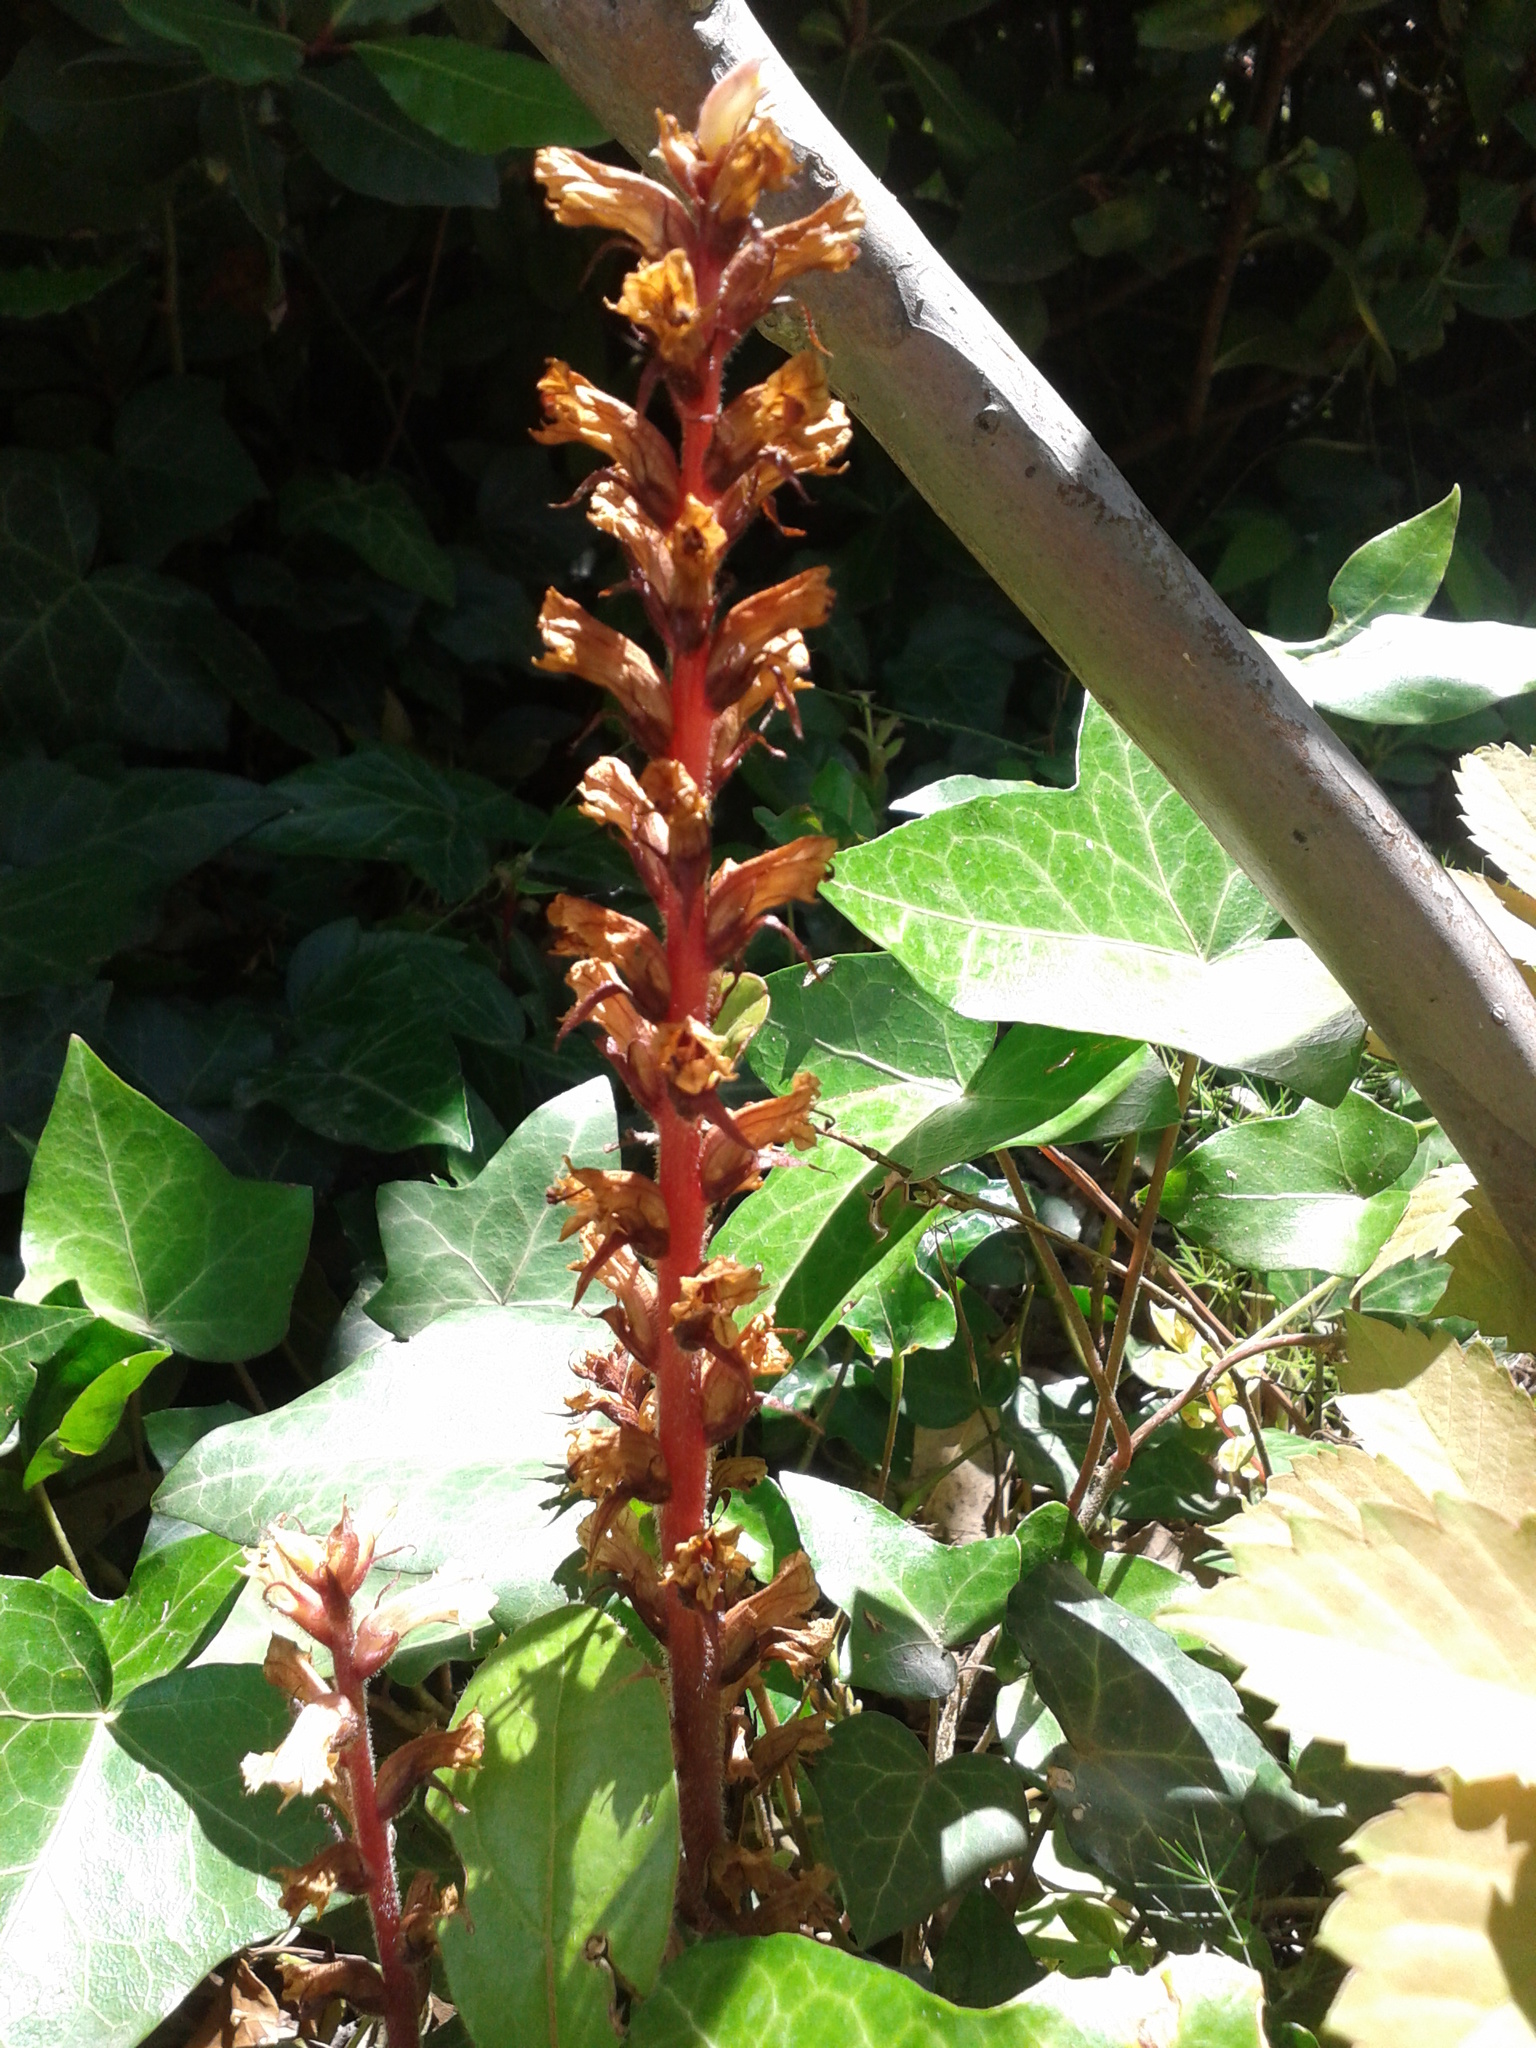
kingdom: Plantae
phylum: Tracheophyta
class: Magnoliopsida
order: Lamiales
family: Orobanchaceae
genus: Orobanche
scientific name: Orobanche hederae
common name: Ivy broomrape
